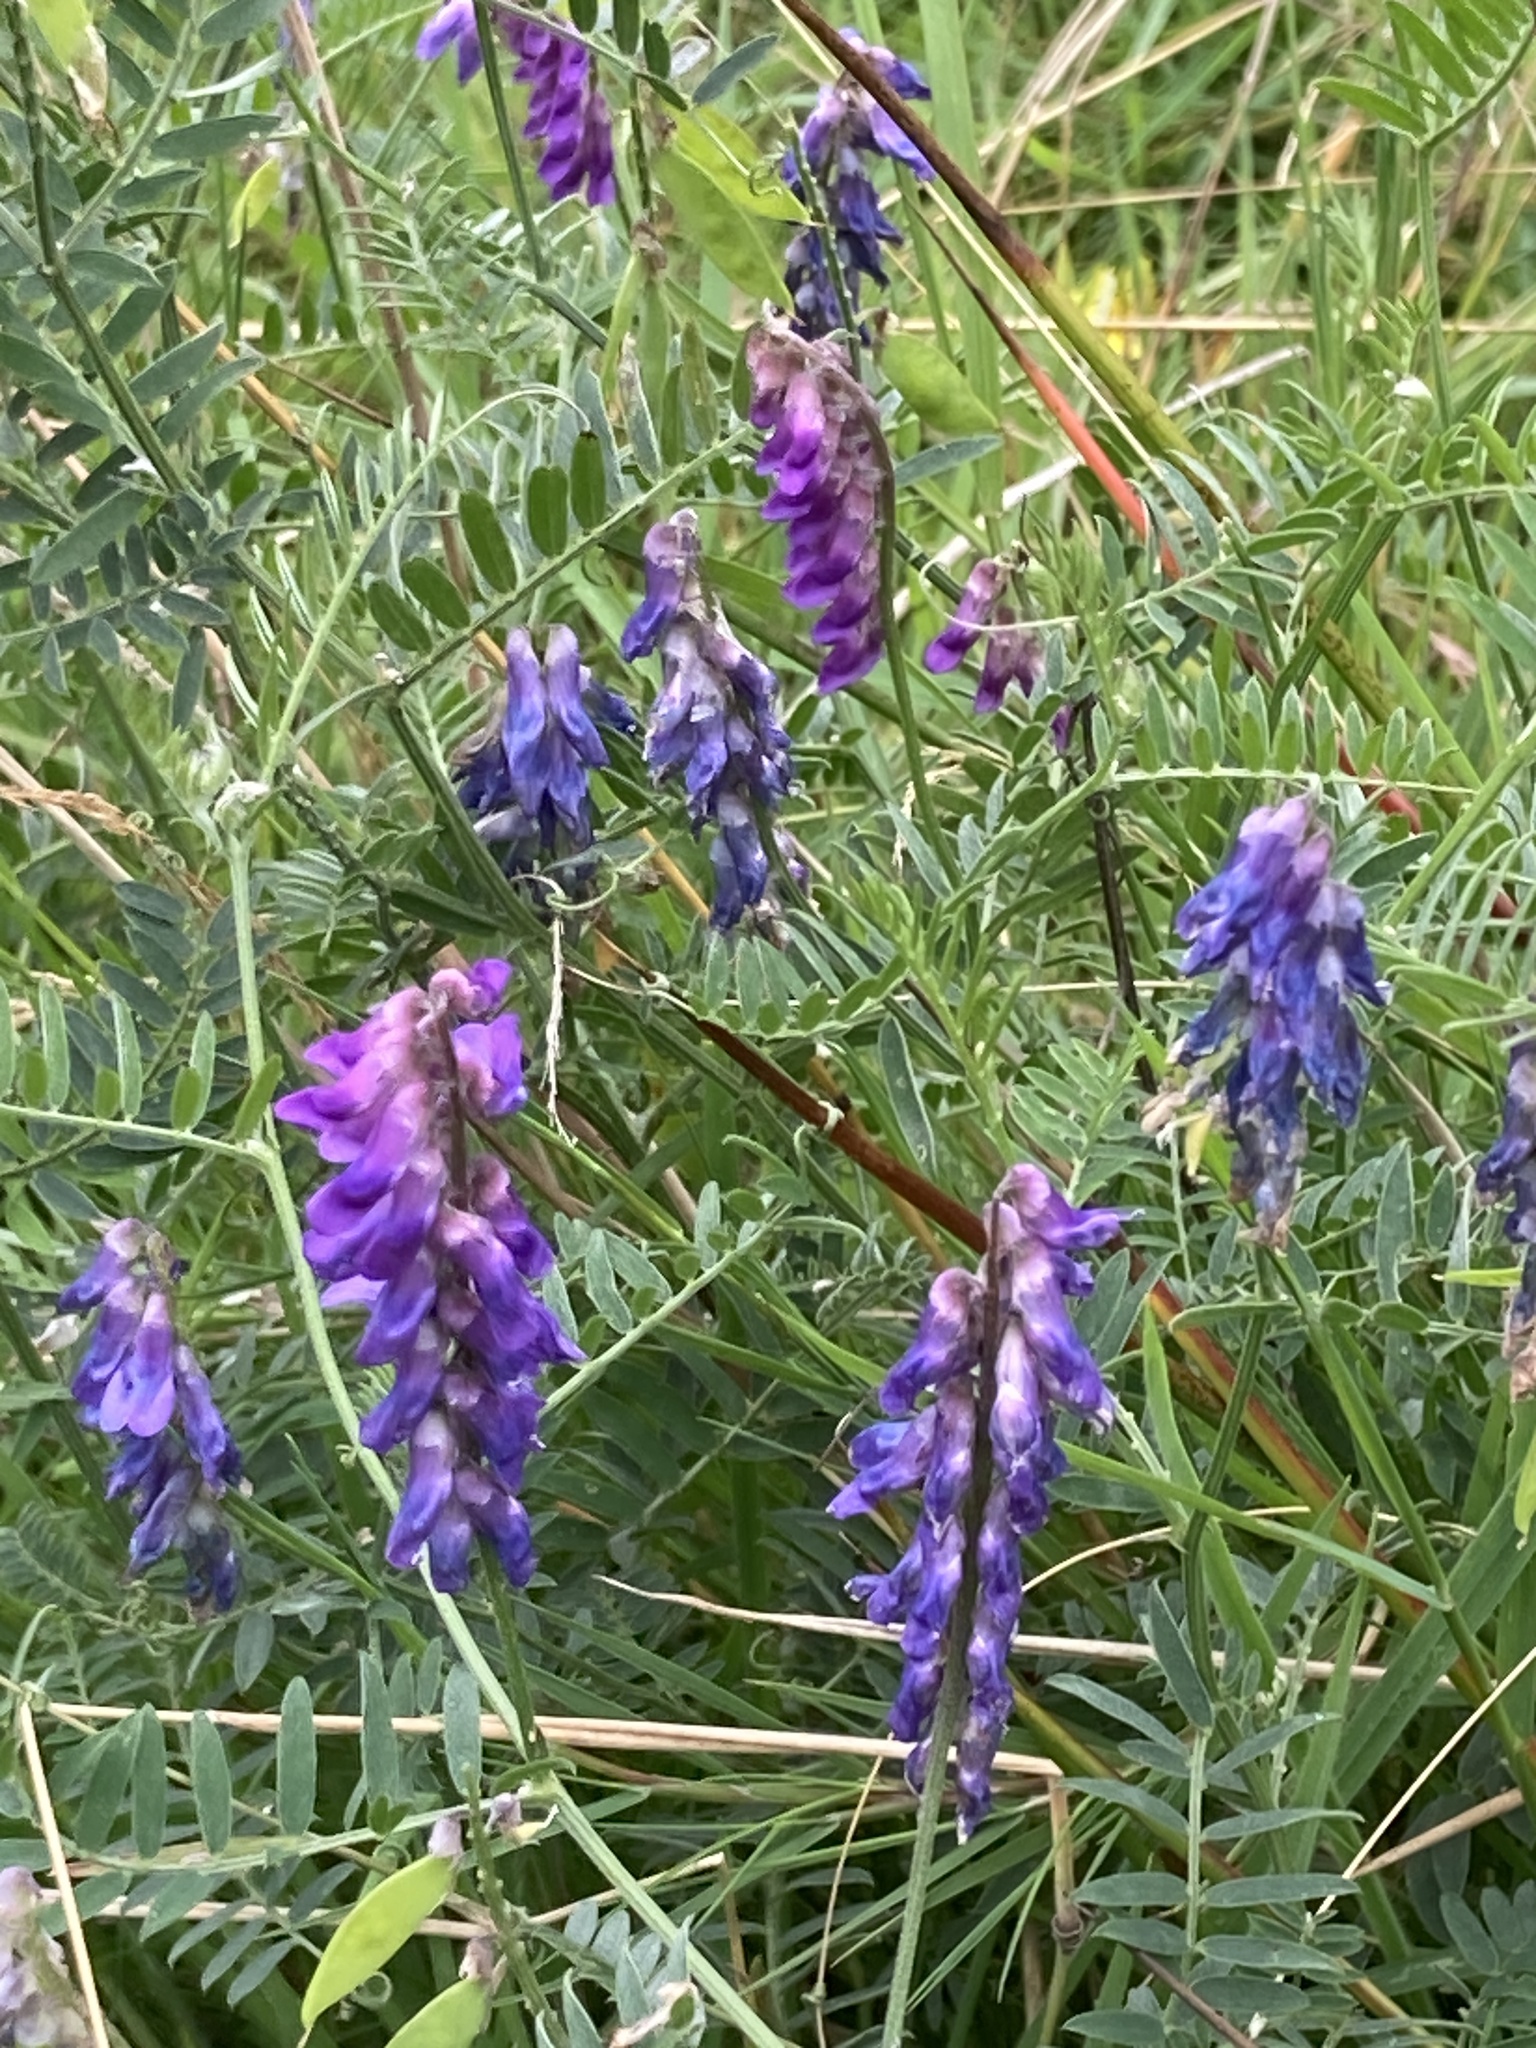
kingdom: Plantae
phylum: Tracheophyta
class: Magnoliopsida
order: Fabales
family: Fabaceae
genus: Vicia
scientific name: Vicia cracca
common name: Bird vetch
